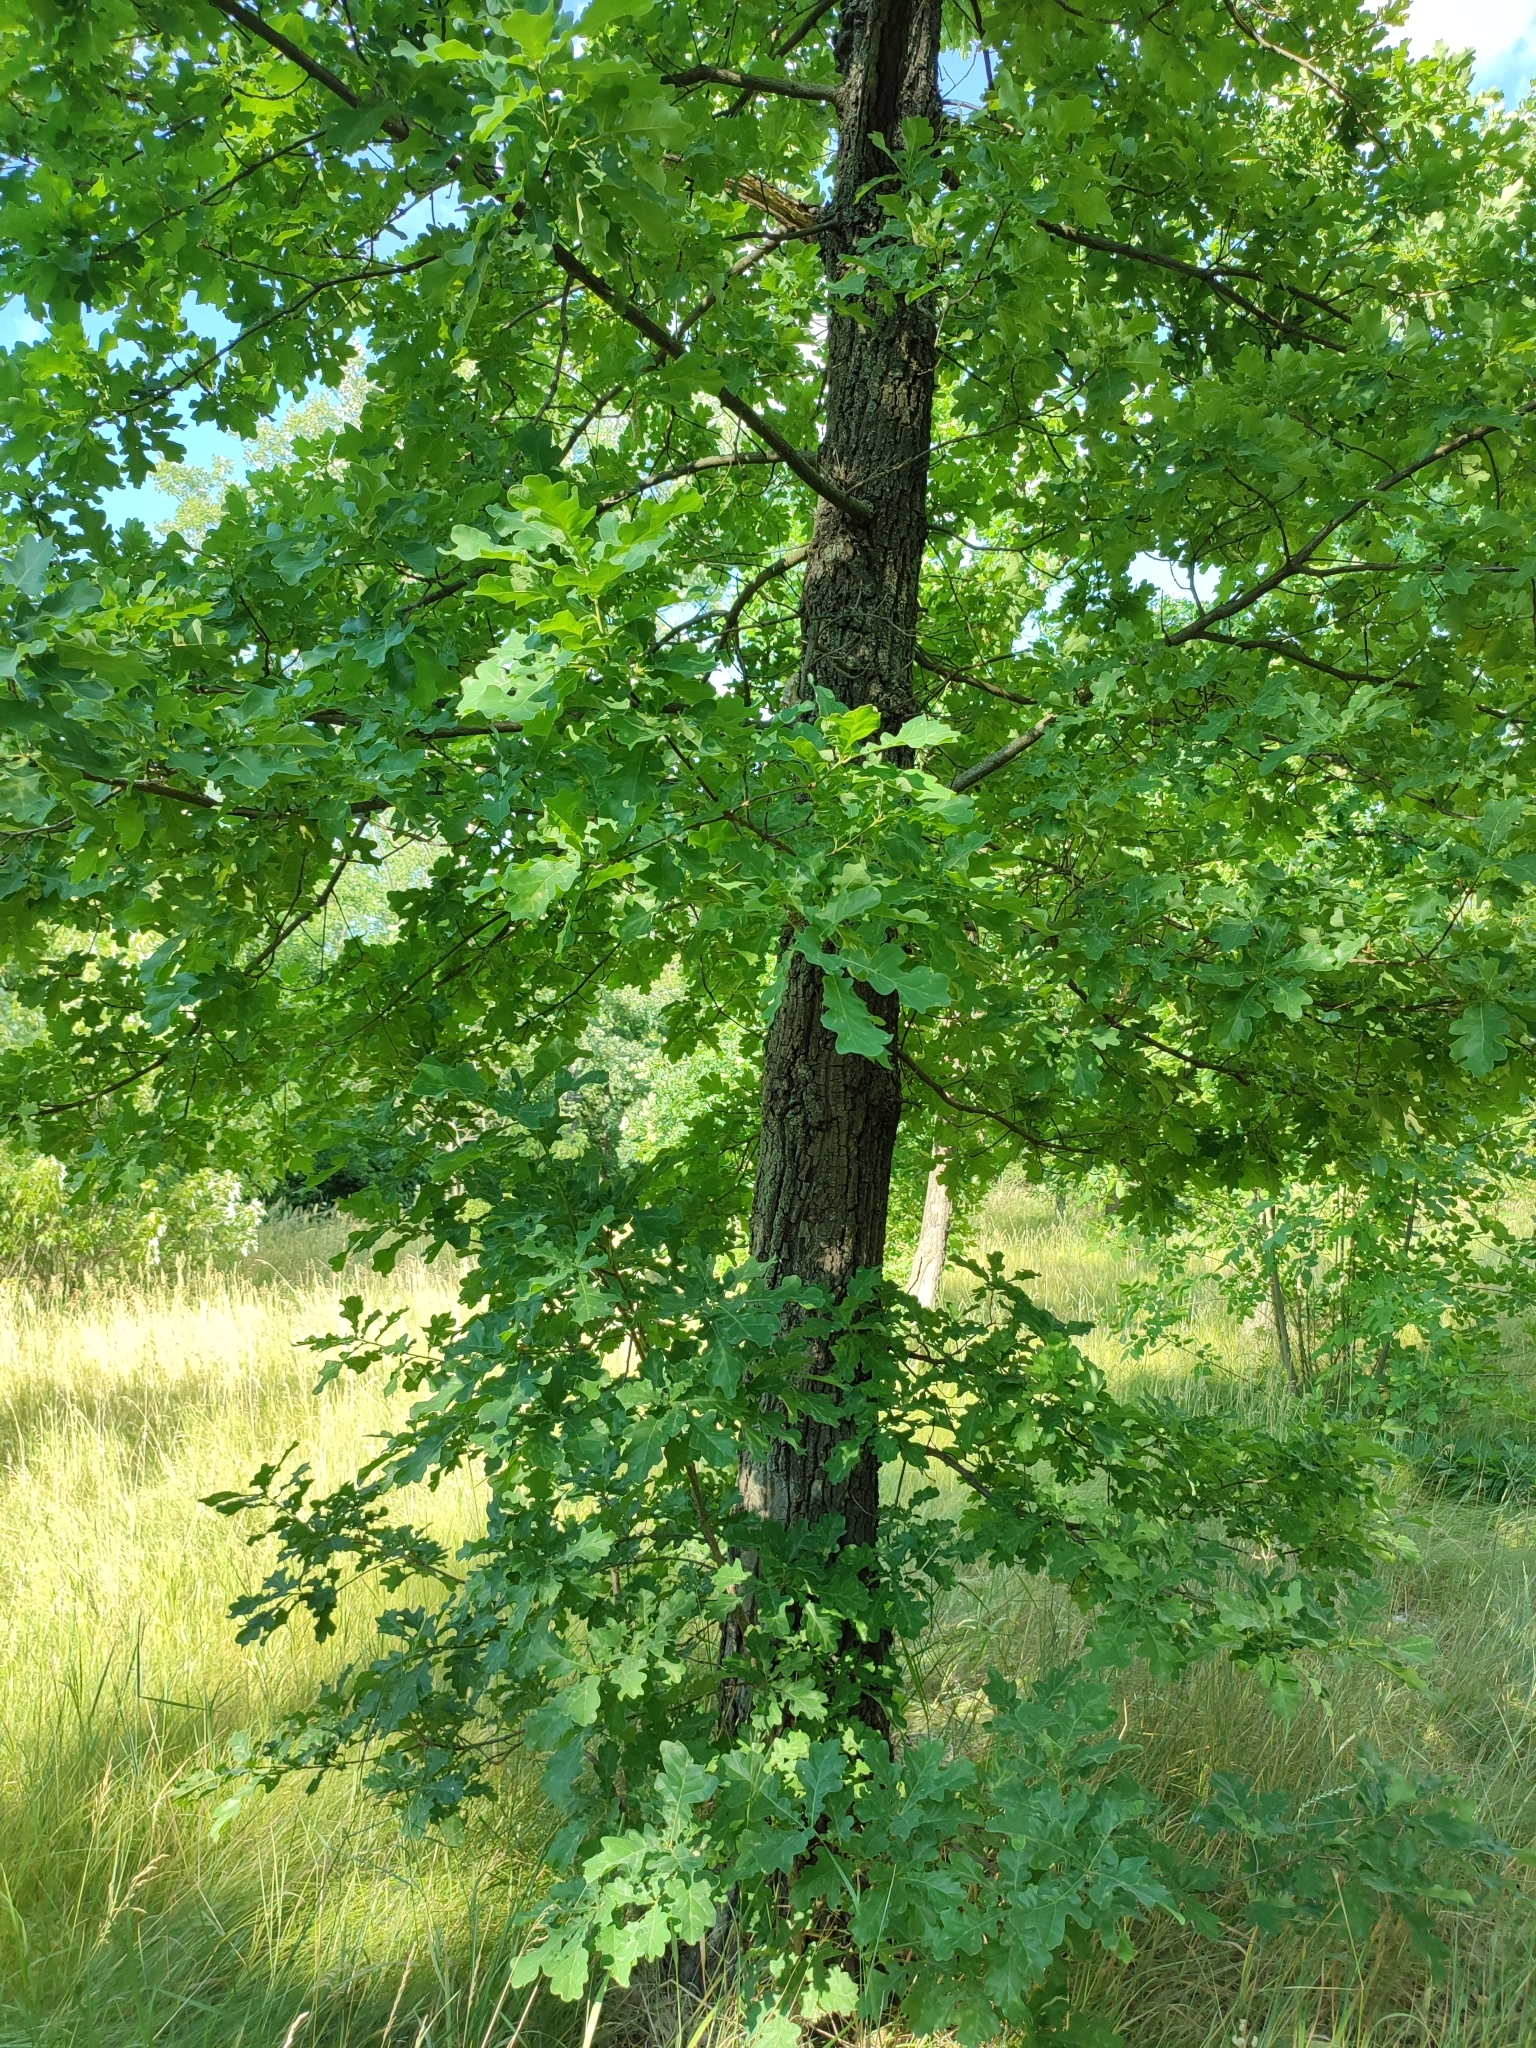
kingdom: Plantae
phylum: Tracheophyta
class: Magnoliopsida
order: Fagales
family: Fagaceae
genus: Quercus
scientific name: Quercus robur
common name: Pedunculate oak
